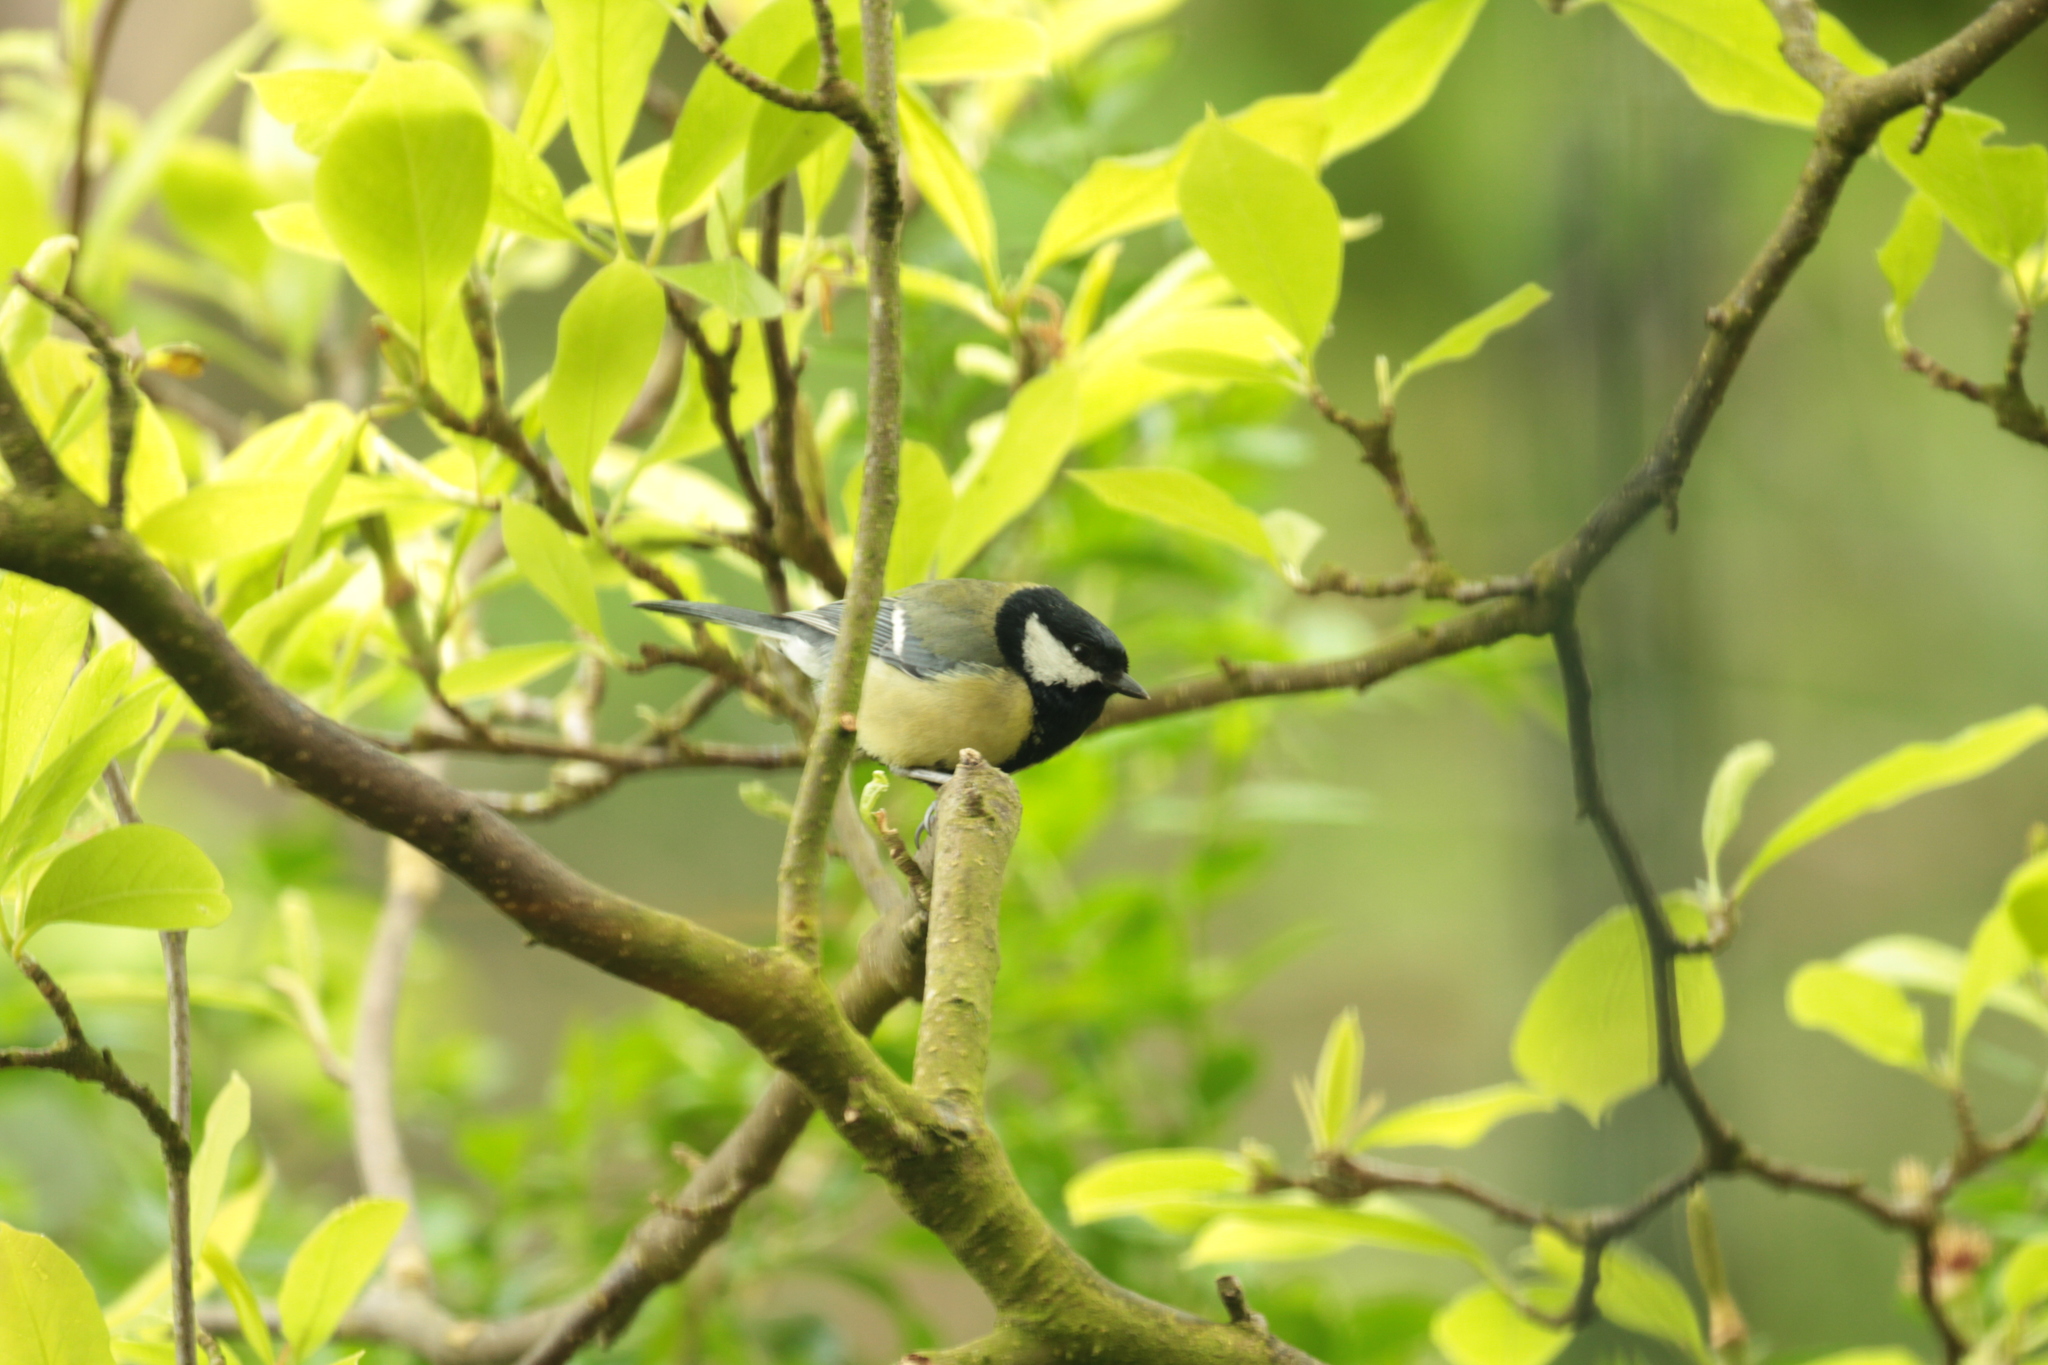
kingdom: Animalia
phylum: Chordata
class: Aves
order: Passeriformes
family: Paridae
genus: Parus
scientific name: Parus major
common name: Great tit
